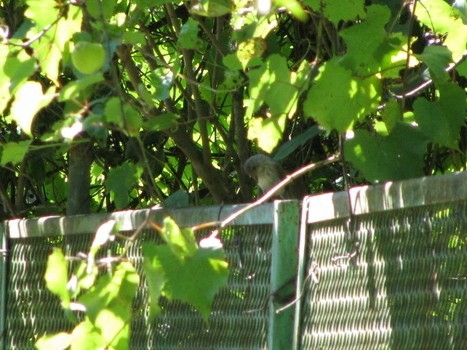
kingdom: Animalia
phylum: Chordata
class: Aves
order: Passeriformes
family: Muscicapidae
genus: Muscicapa
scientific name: Muscicapa striata
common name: Spotted flycatcher
